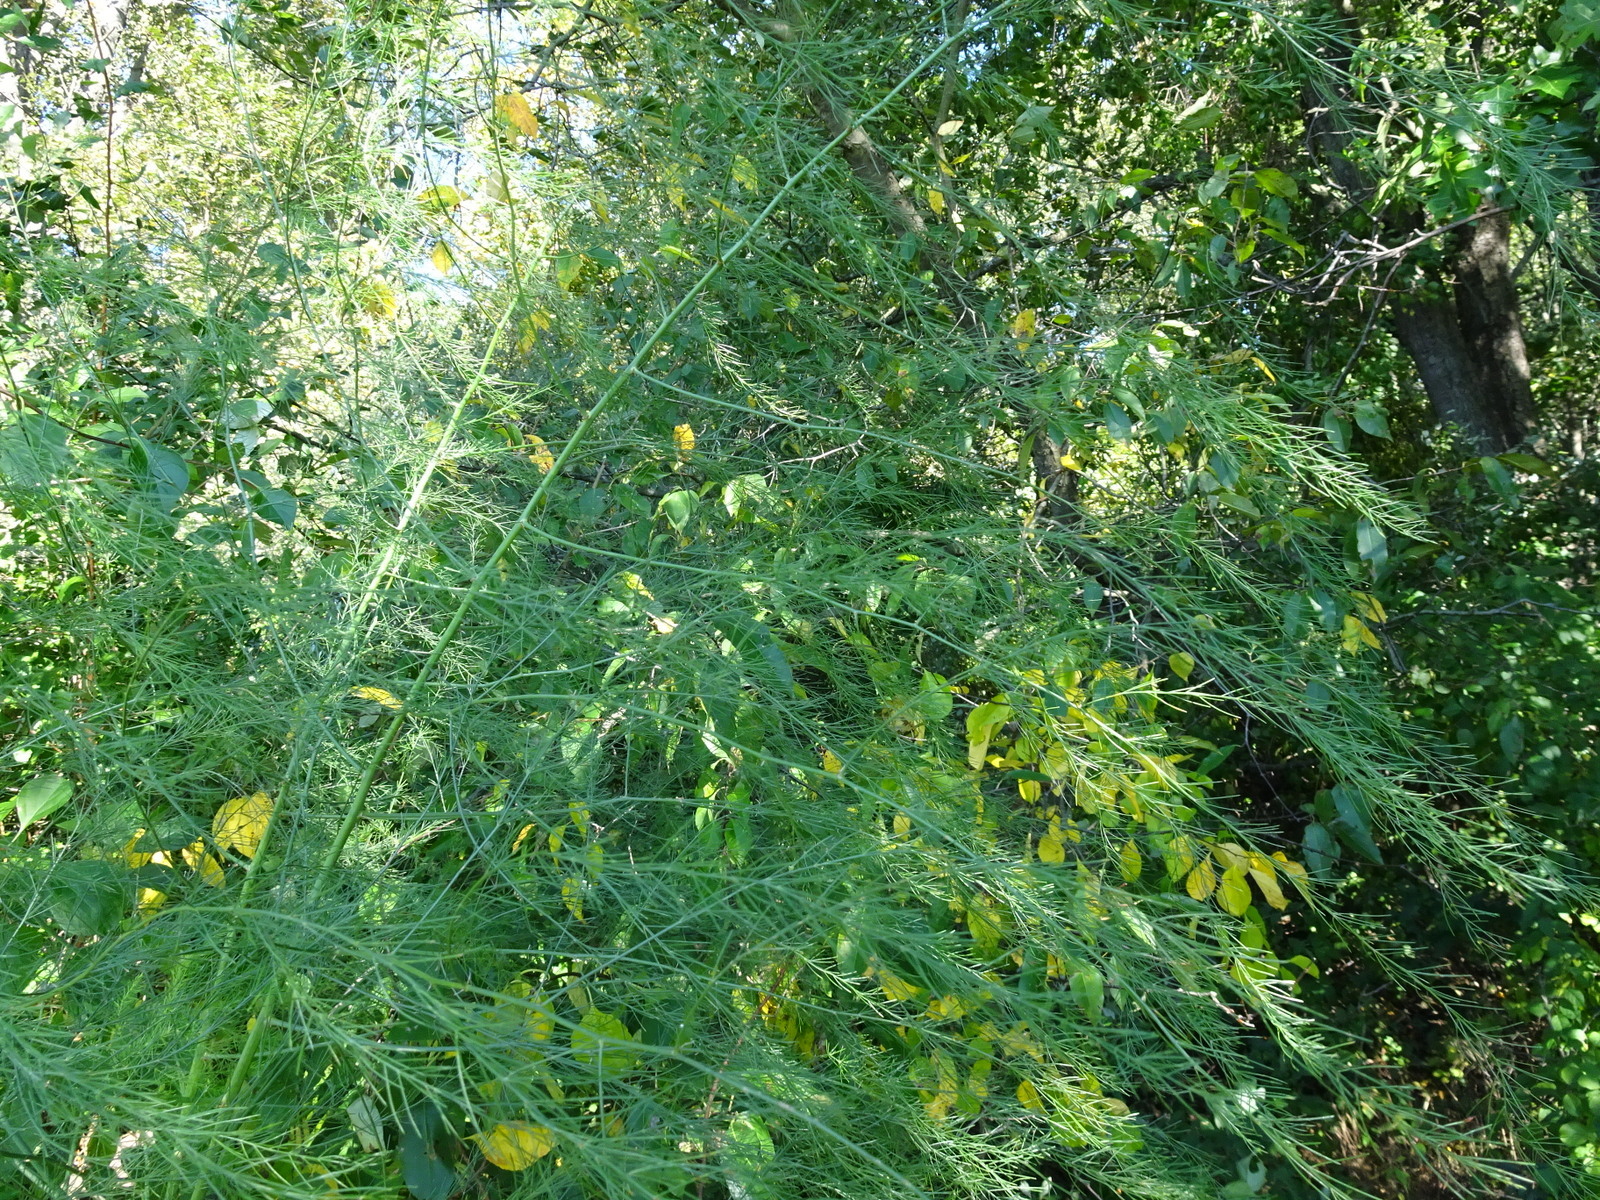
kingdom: Plantae
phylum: Tracheophyta
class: Liliopsida
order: Asparagales
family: Asparagaceae
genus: Asparagus
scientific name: Asparagus officinalis
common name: Garden asparagus
